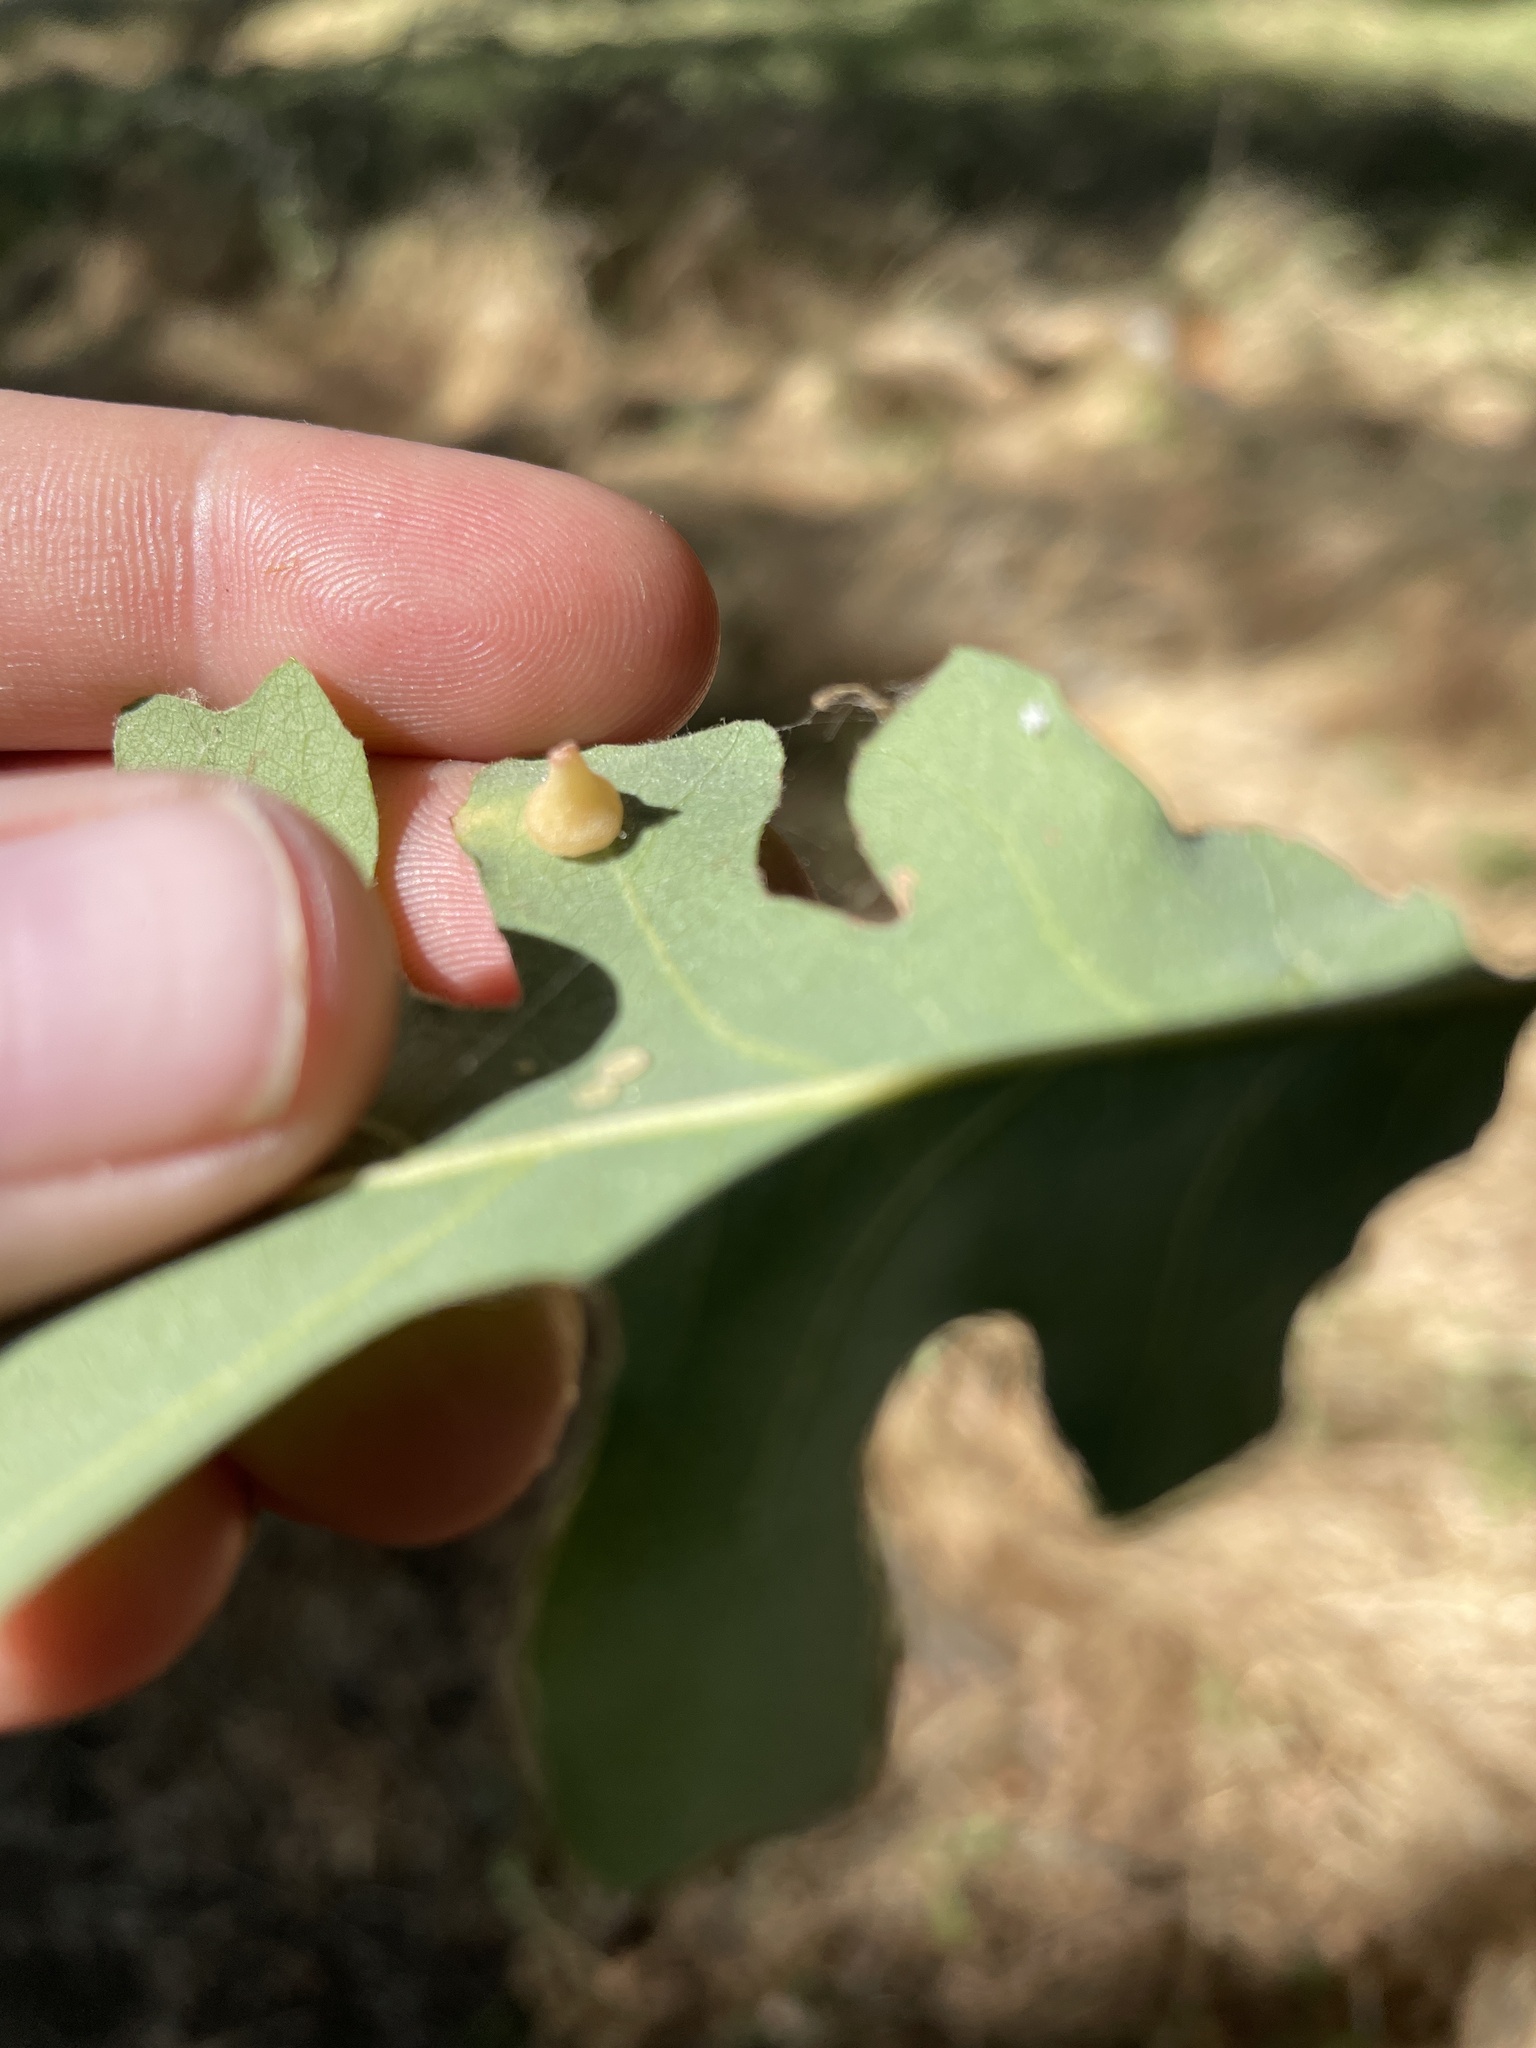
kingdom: Animalia
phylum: Arthropoda
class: Insecta
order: Hymenoptera
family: Cynipidae
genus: Andricus
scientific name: Andricus
